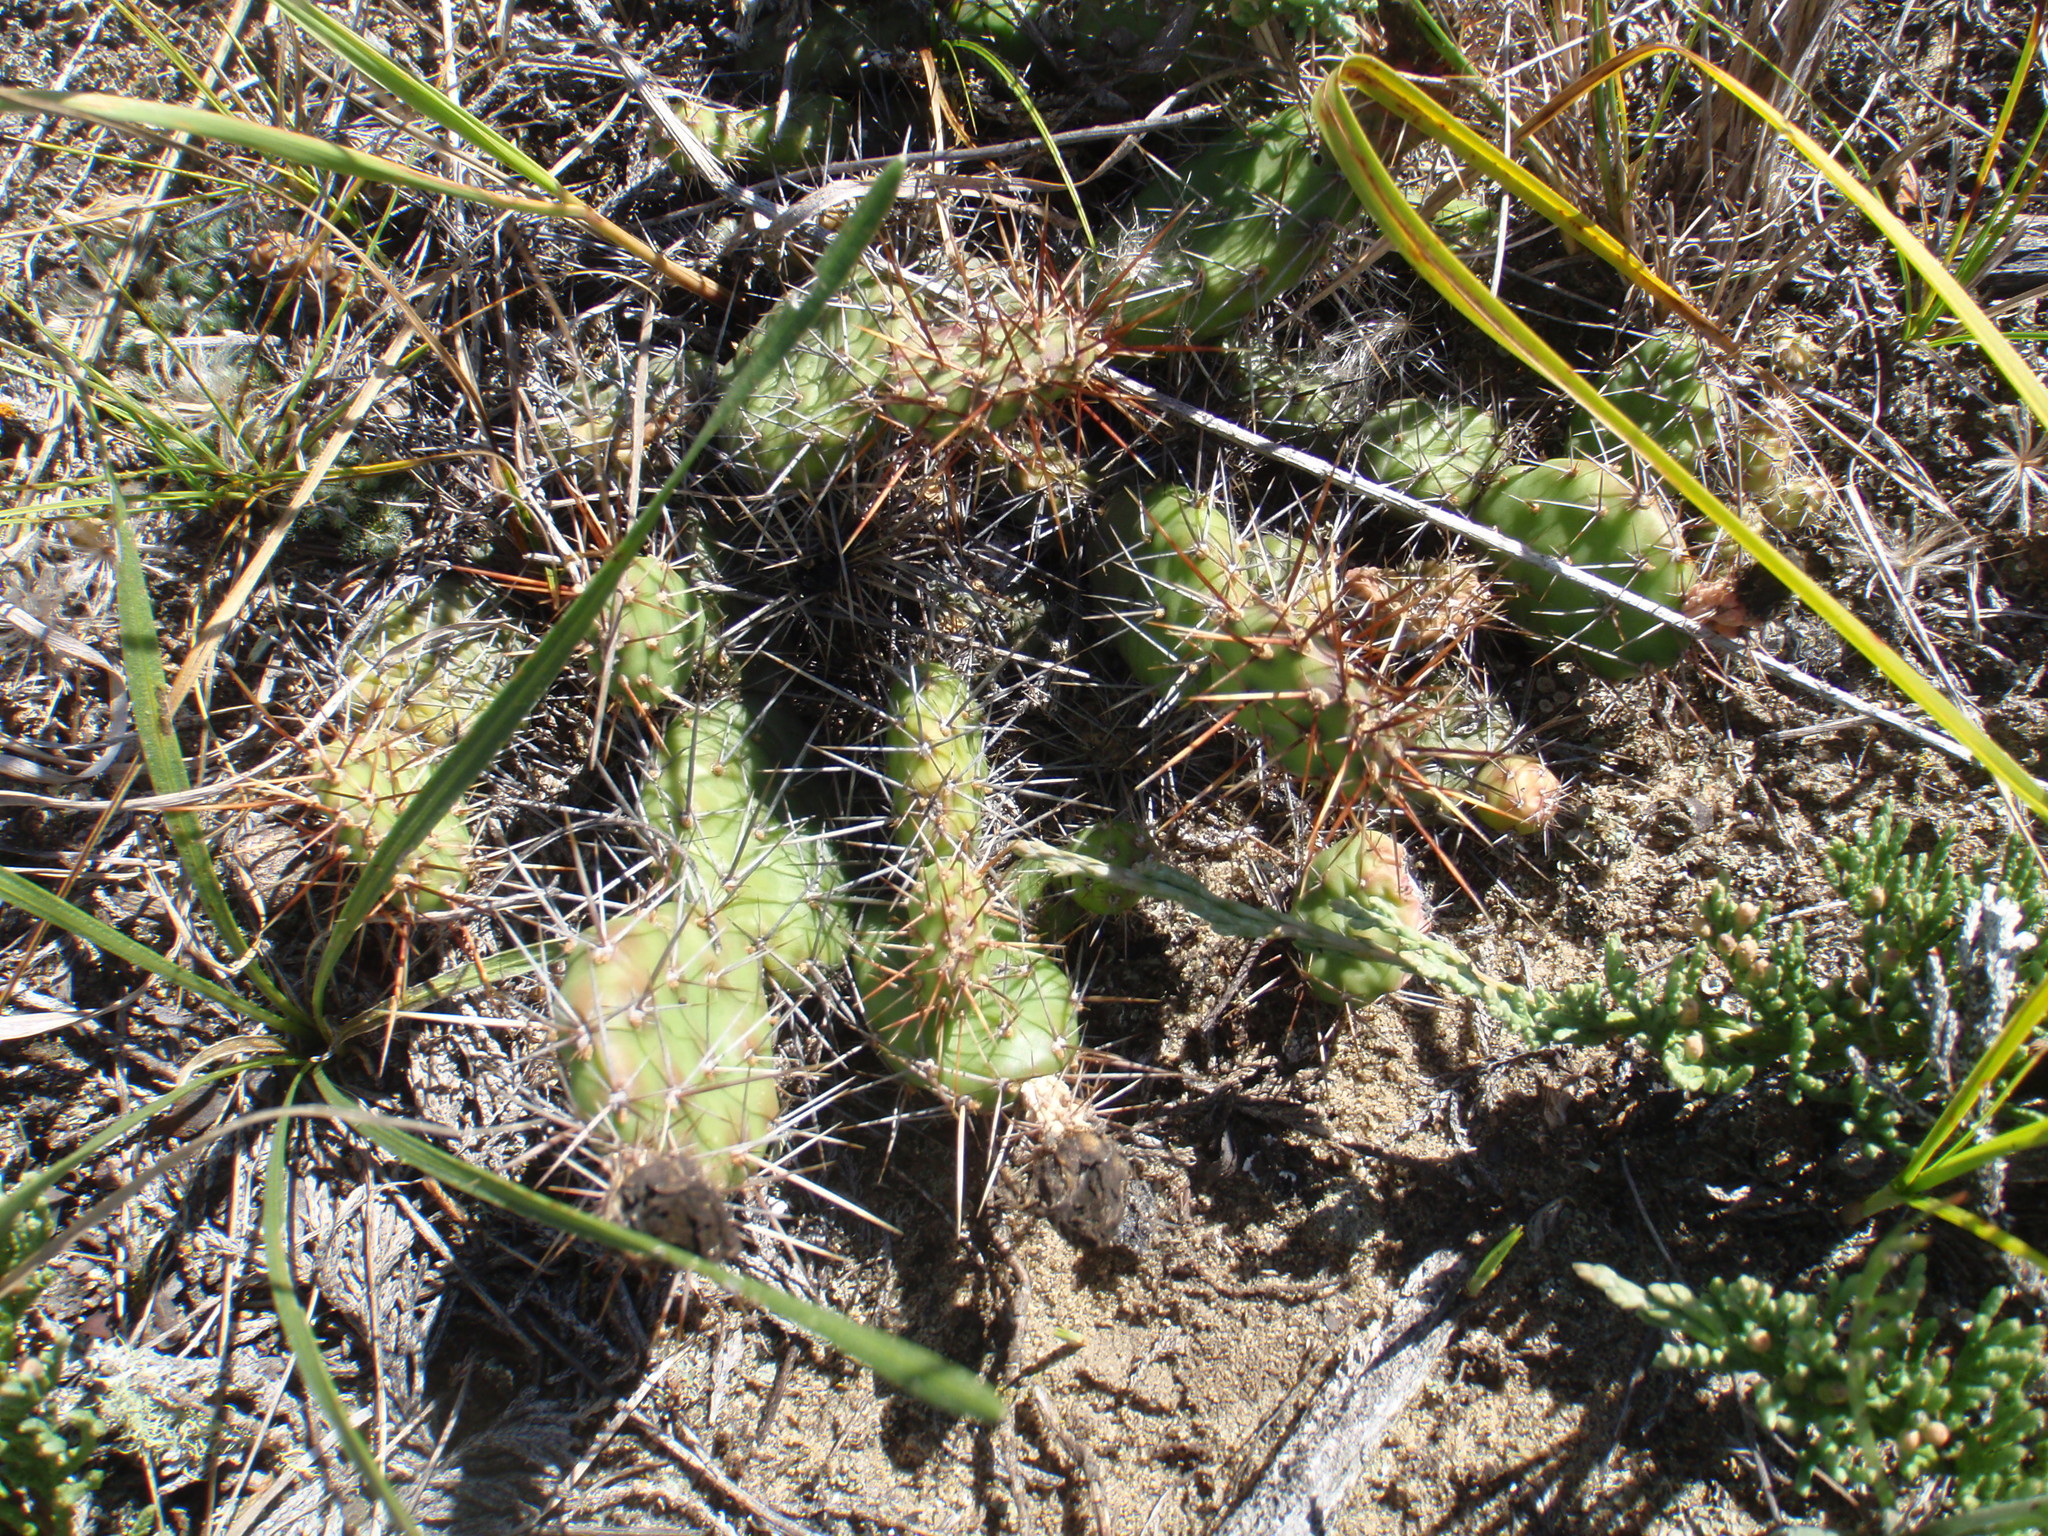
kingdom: Plantae
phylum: Tracheophyta
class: Magnoliopsida
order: Caryophyllales
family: Cactaceae
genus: Opuntia
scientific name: Opuntia fragilis
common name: Brittle cactus
